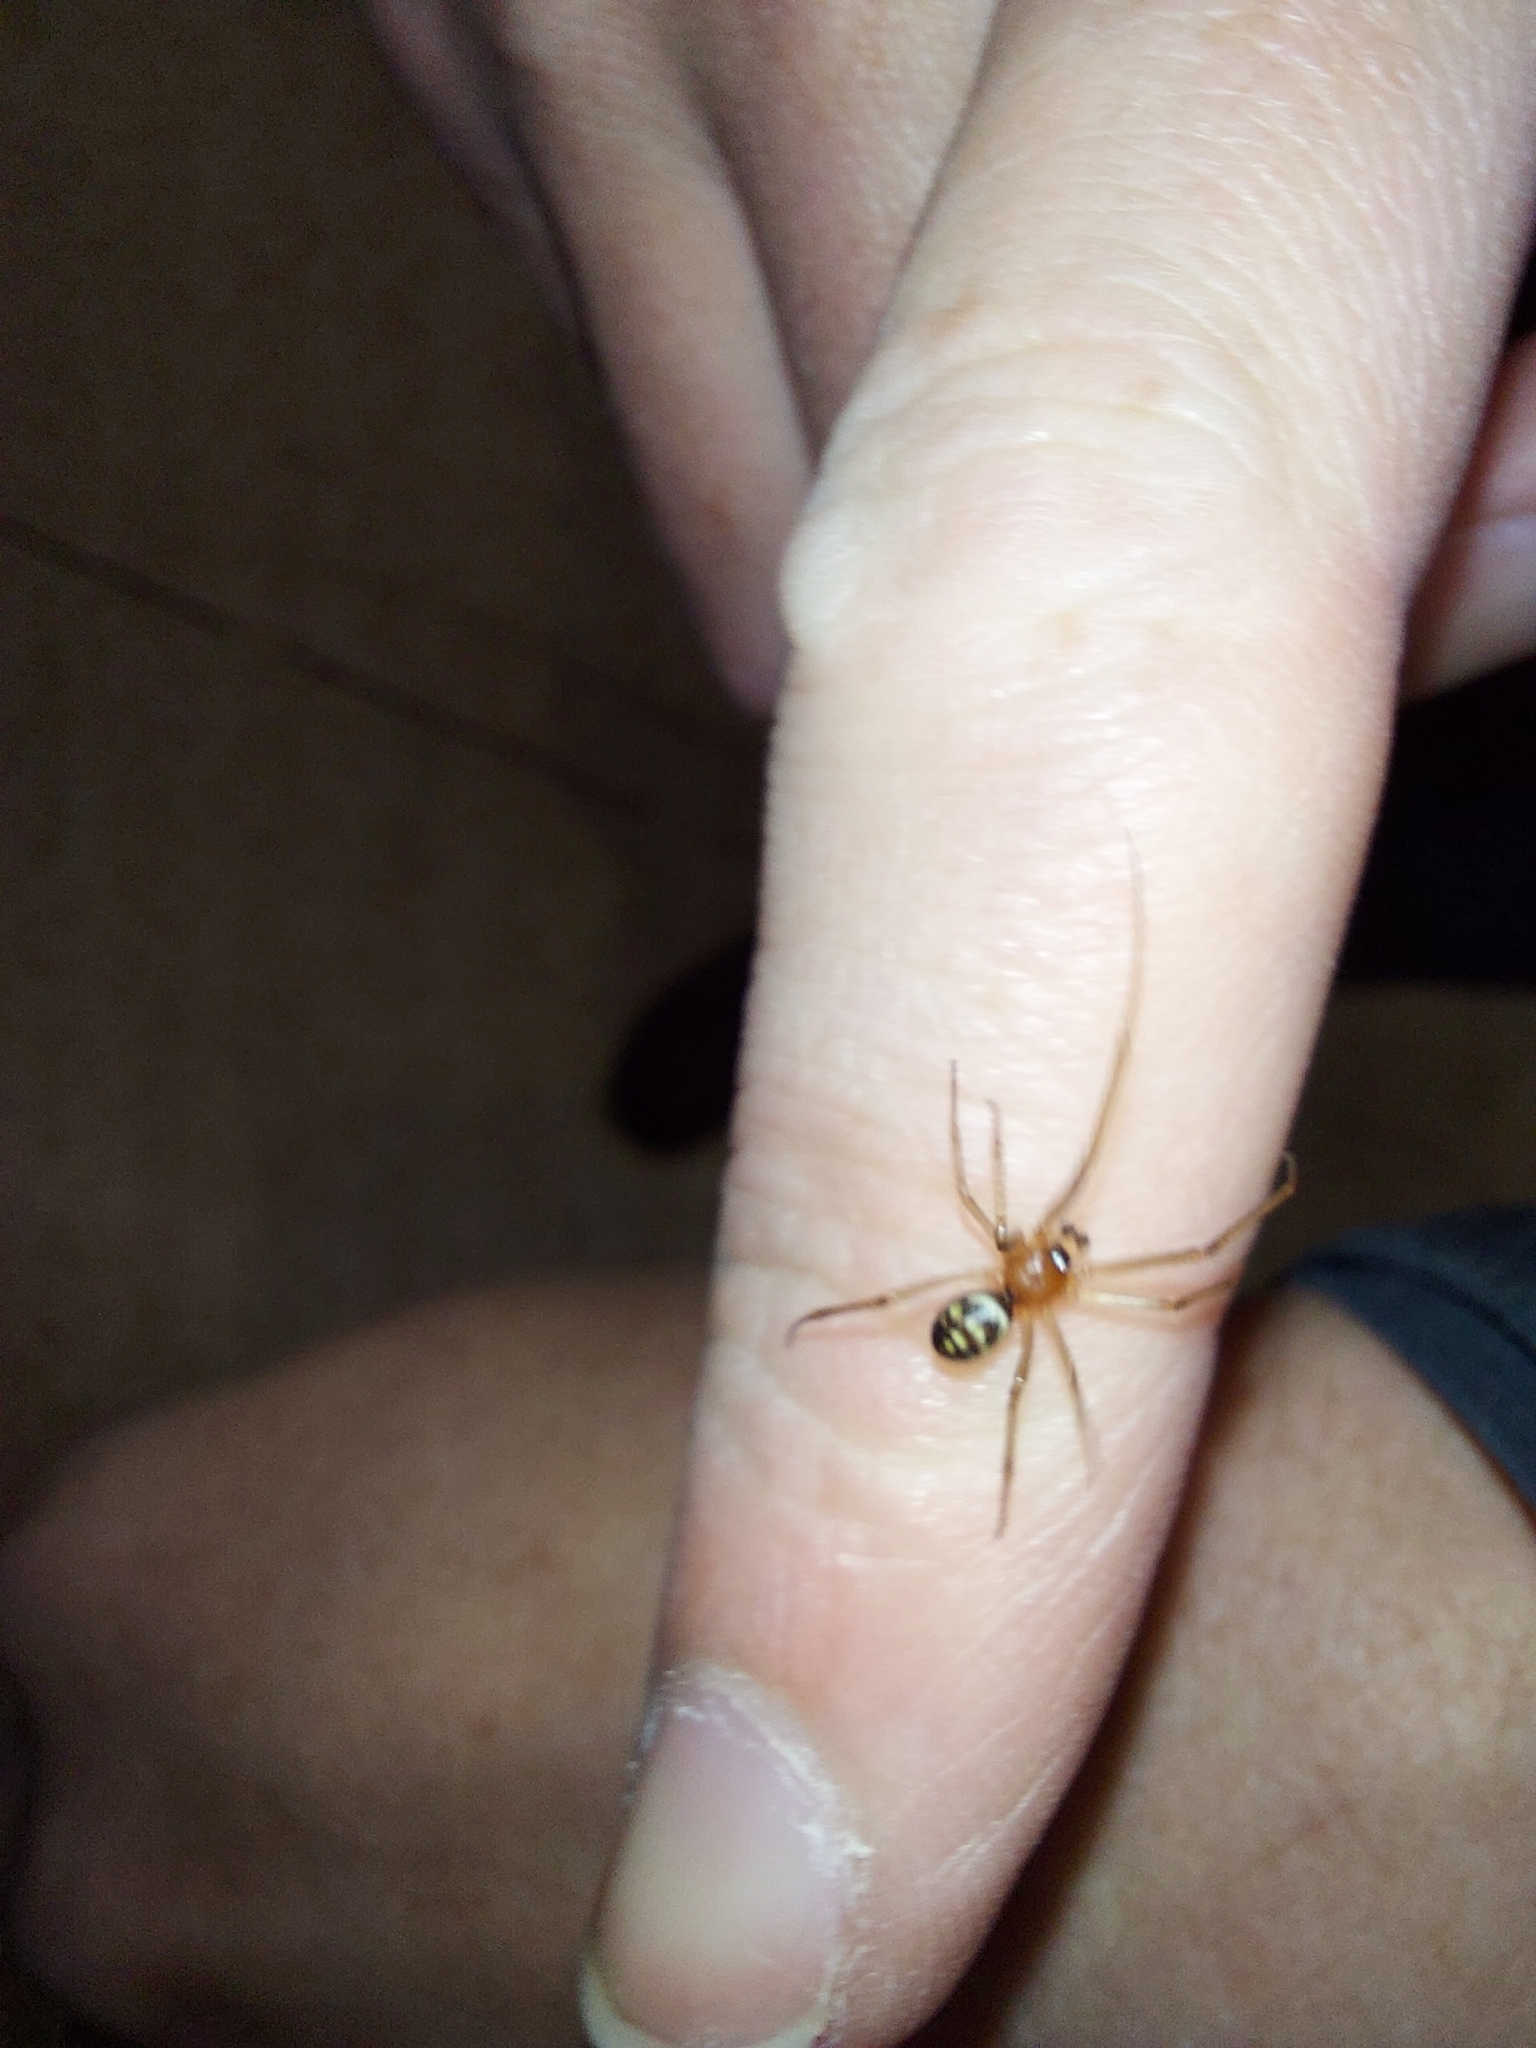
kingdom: Animalia
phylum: Arthropoda
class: Arachnida
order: Araneae
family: Theridiidae
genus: Steatoda
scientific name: Steatoda grossa
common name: False black widow
